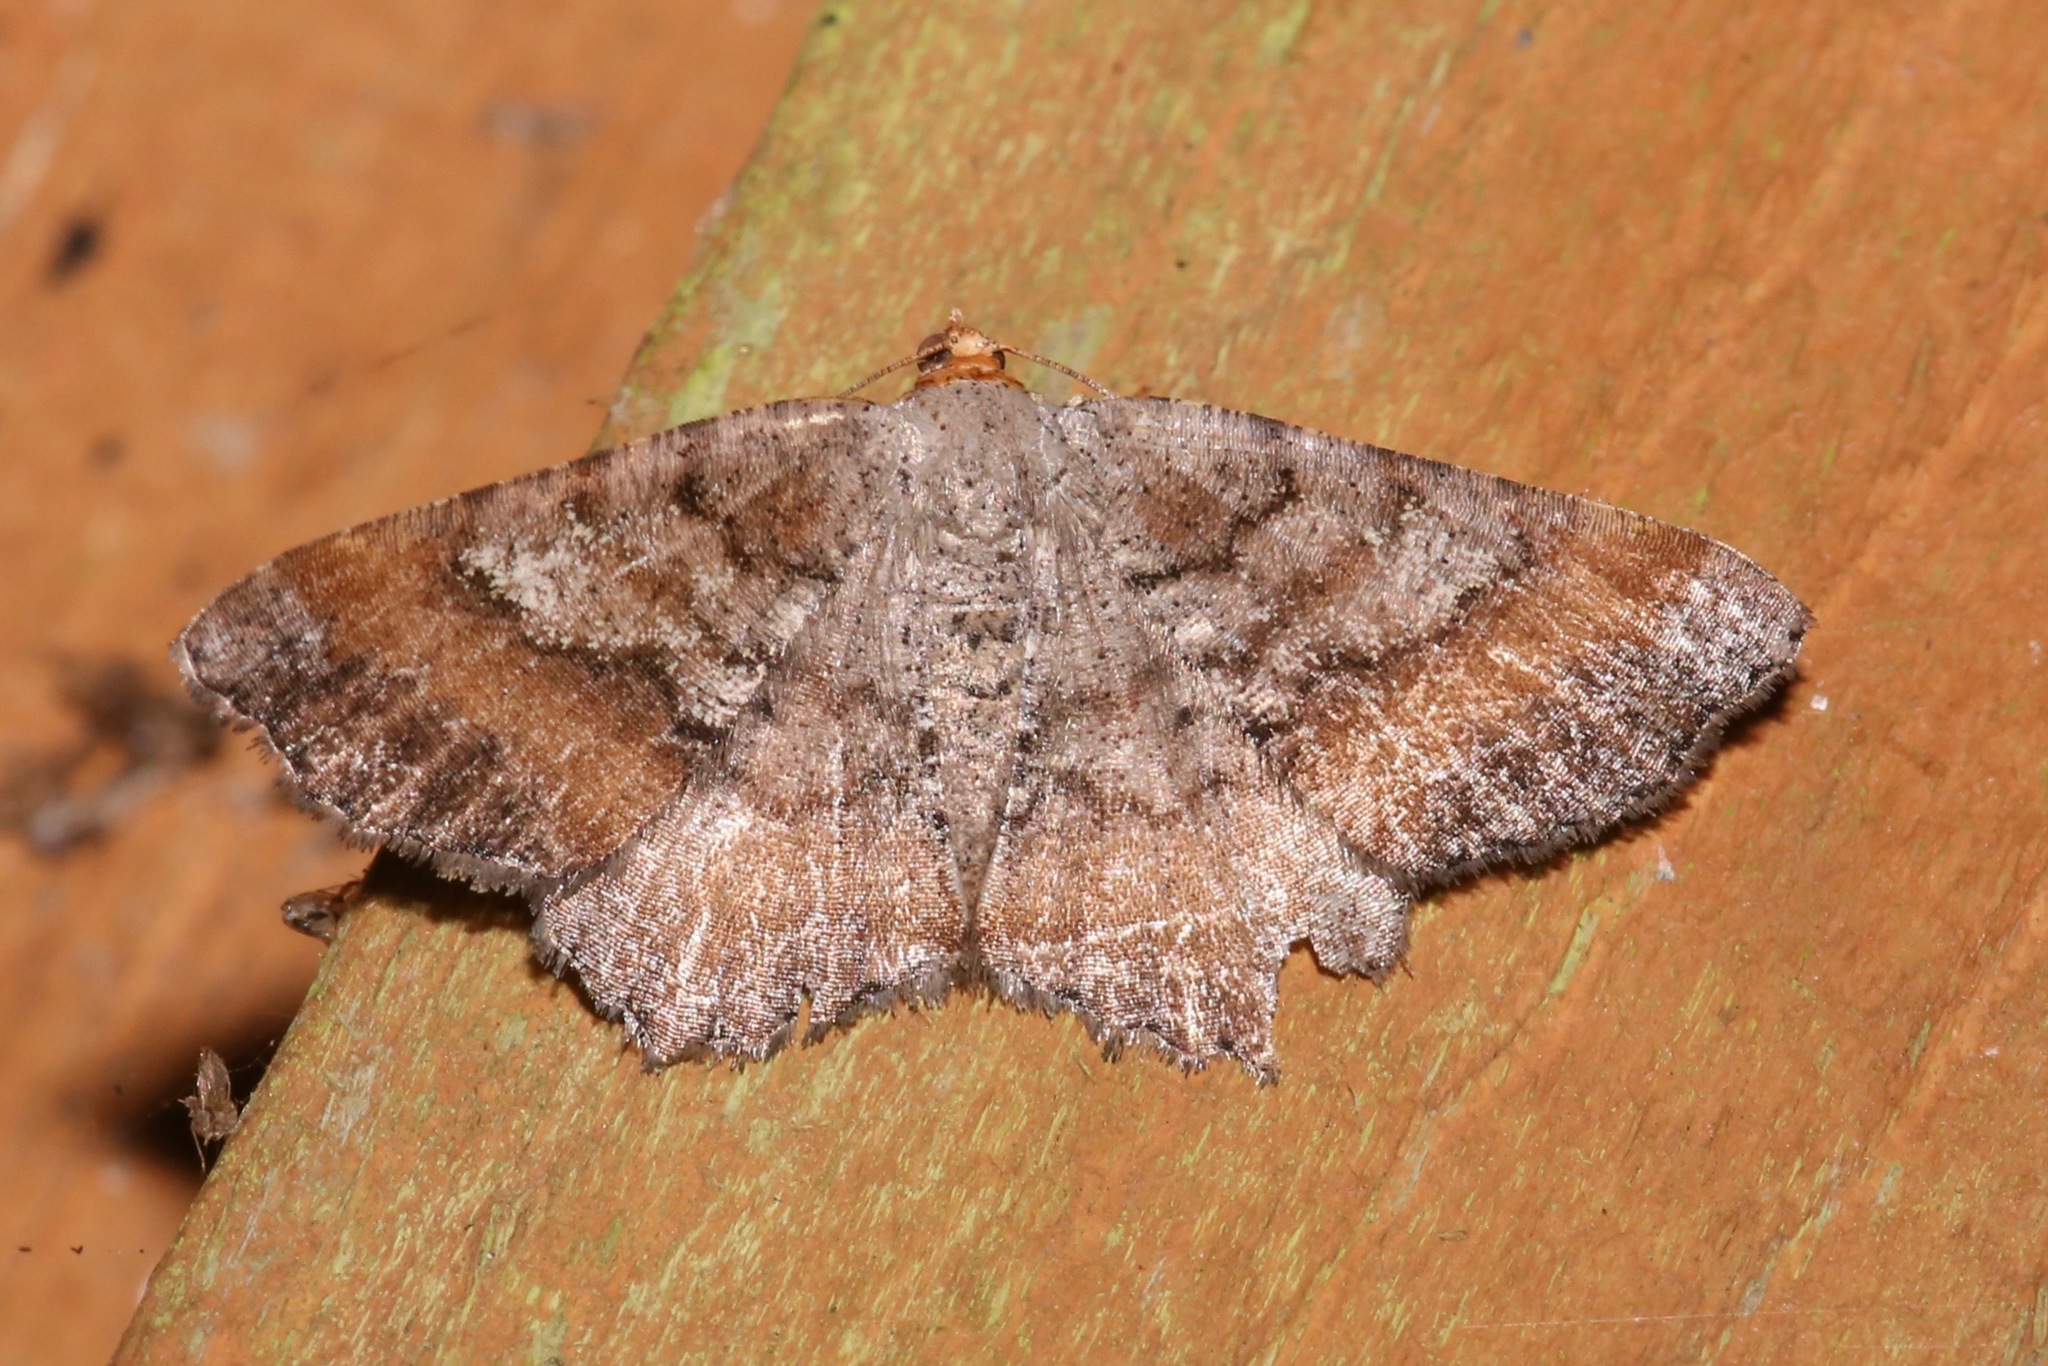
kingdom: Animalia
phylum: Arthropoda
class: Insecta
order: Lepidoptera
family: Geometridae
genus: Macaria
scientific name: Macaria distribuaria
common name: Southern chocolate angle
